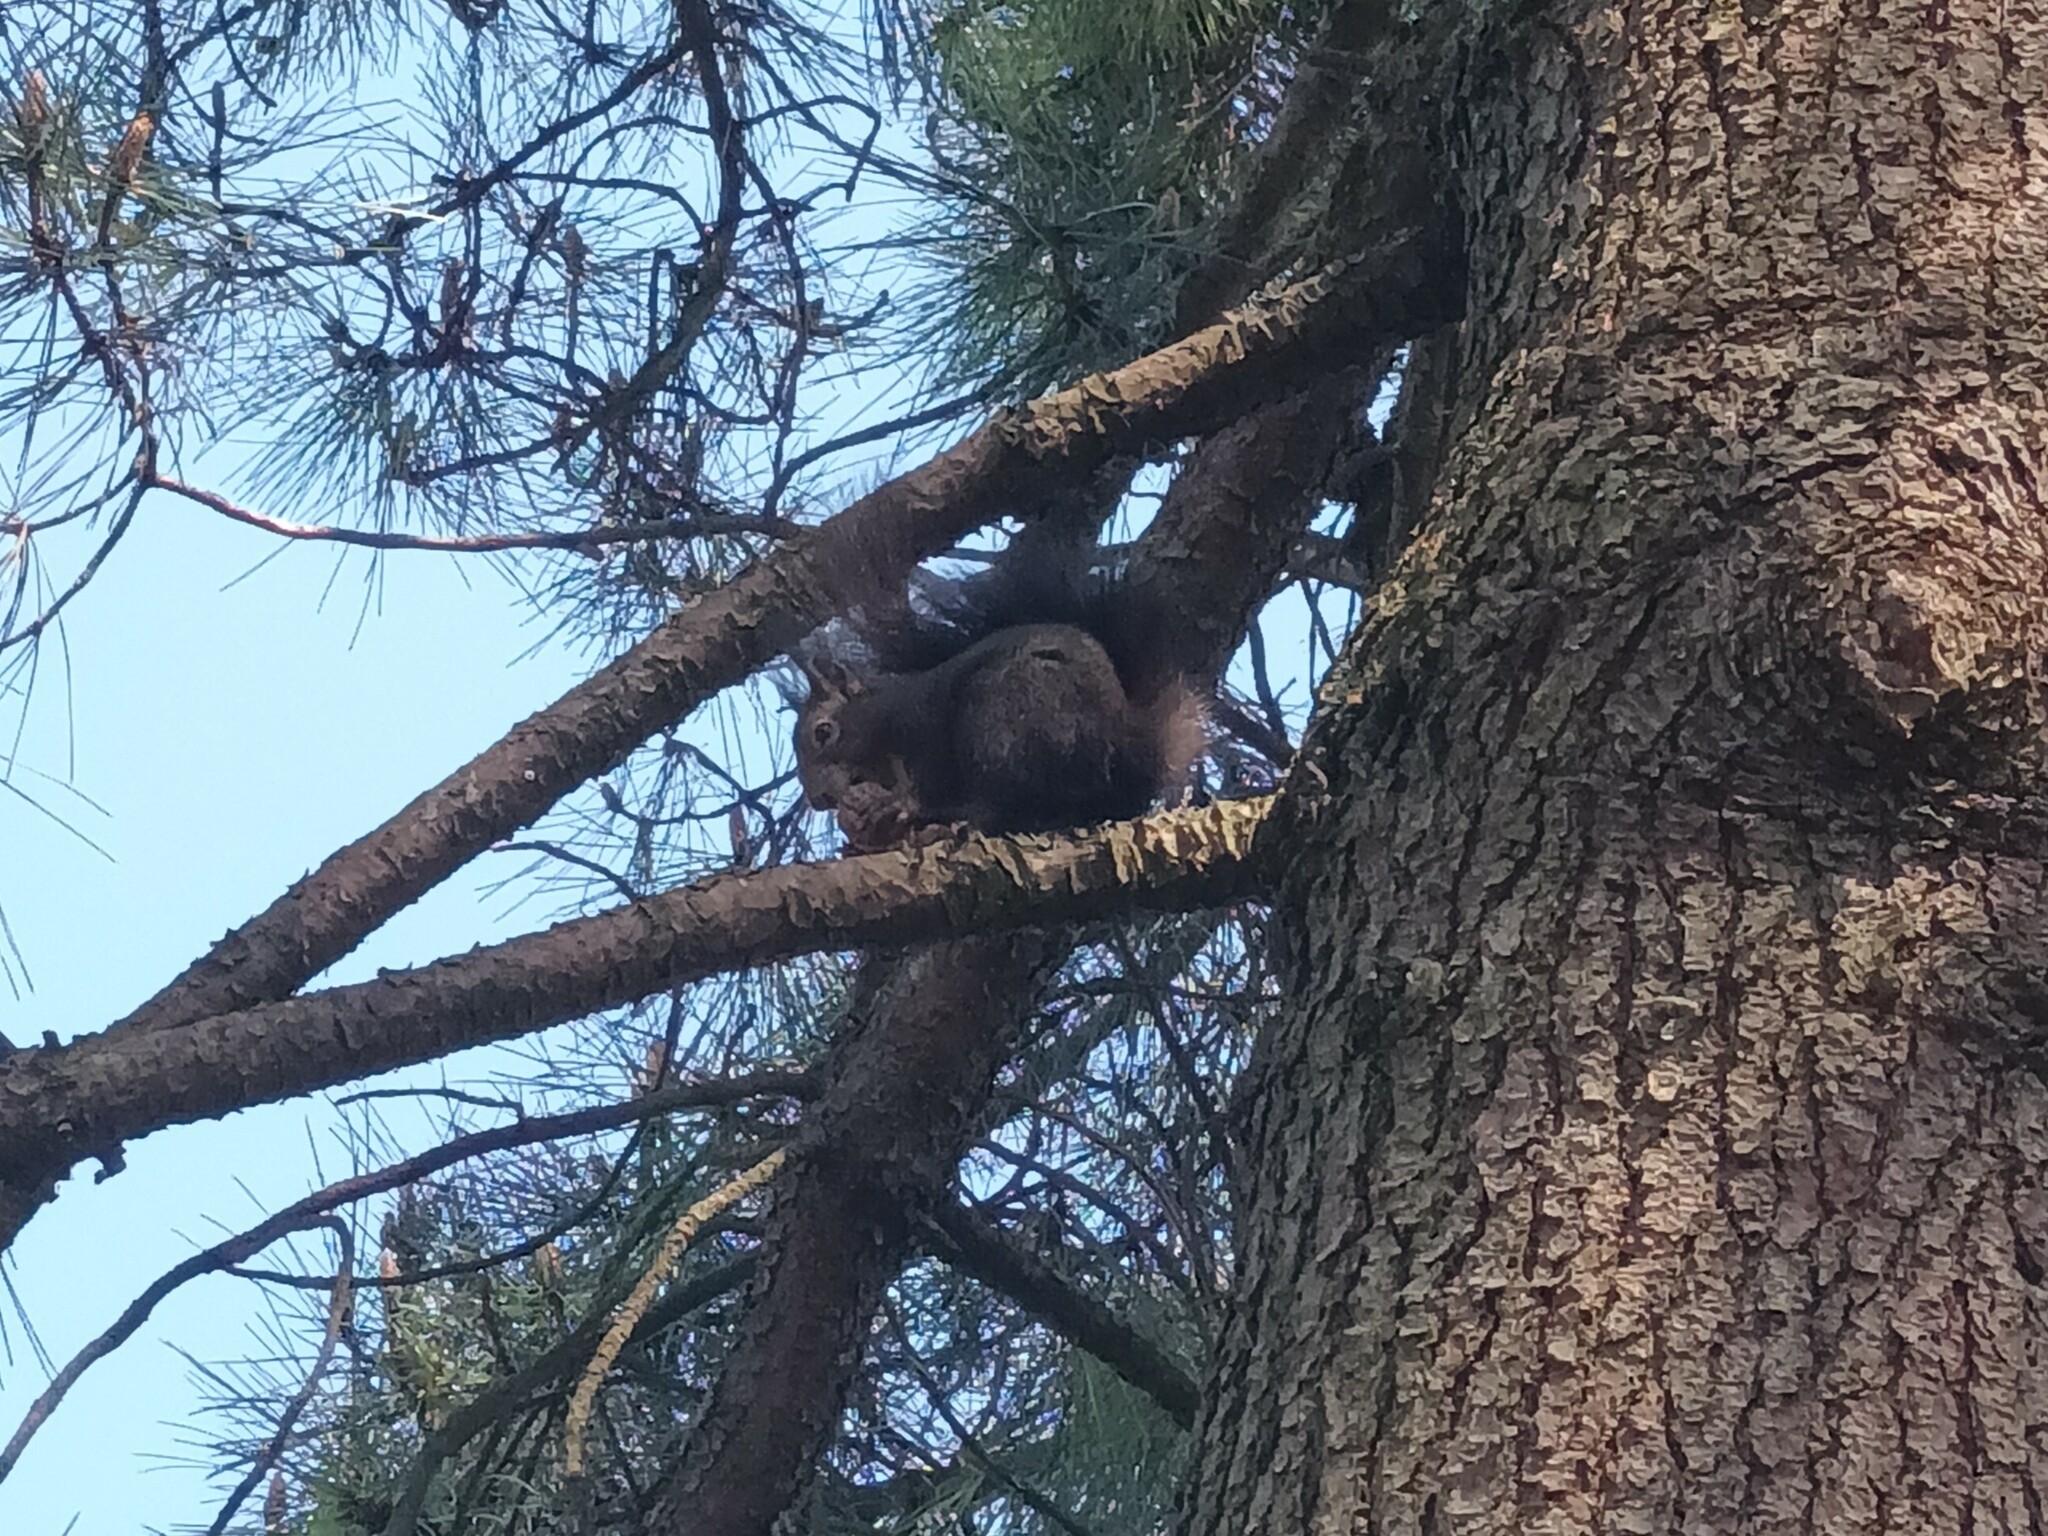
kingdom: Animalia
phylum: Chordata
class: Mammalia
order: Rodentia
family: Sciuridae
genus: Sciurus
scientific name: Sciurus vulgaris
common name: Eurasian red squirrel
